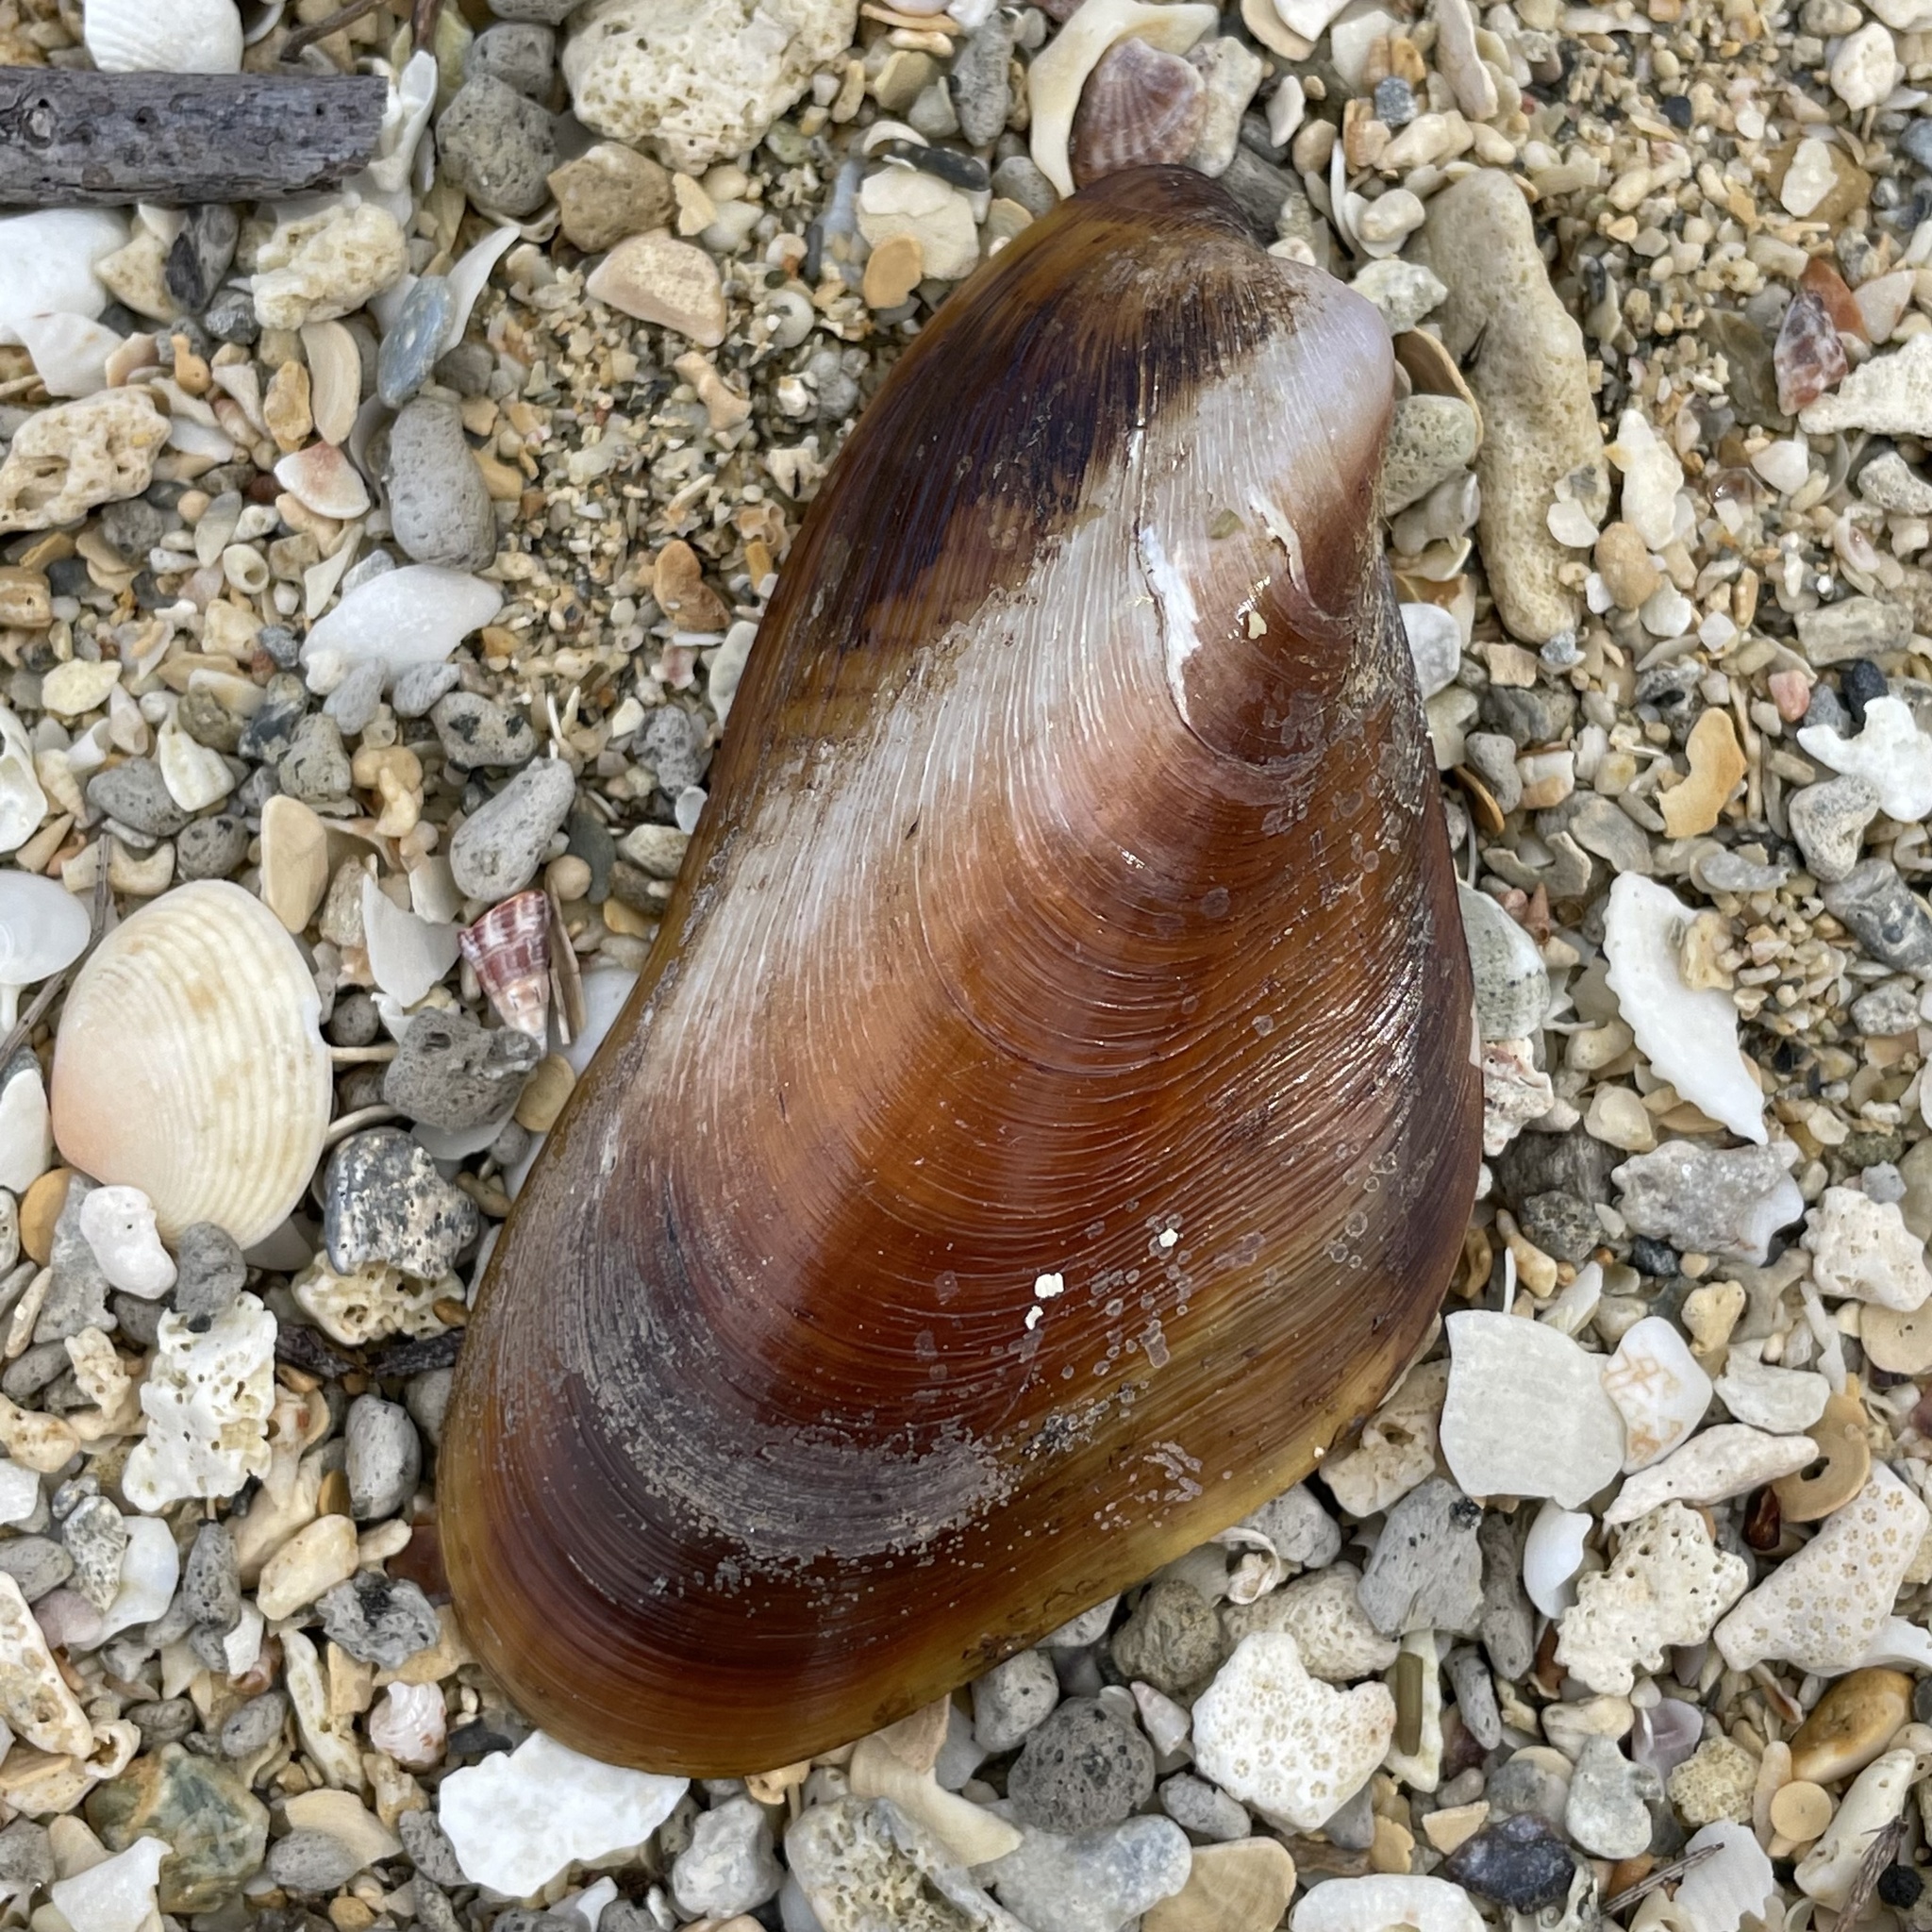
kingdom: Animalia
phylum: Mollusca
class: Bivalvia
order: Mytilida
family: Mytilidae
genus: Modiolus
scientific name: Modiolus auriculatus
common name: Ear mussel
